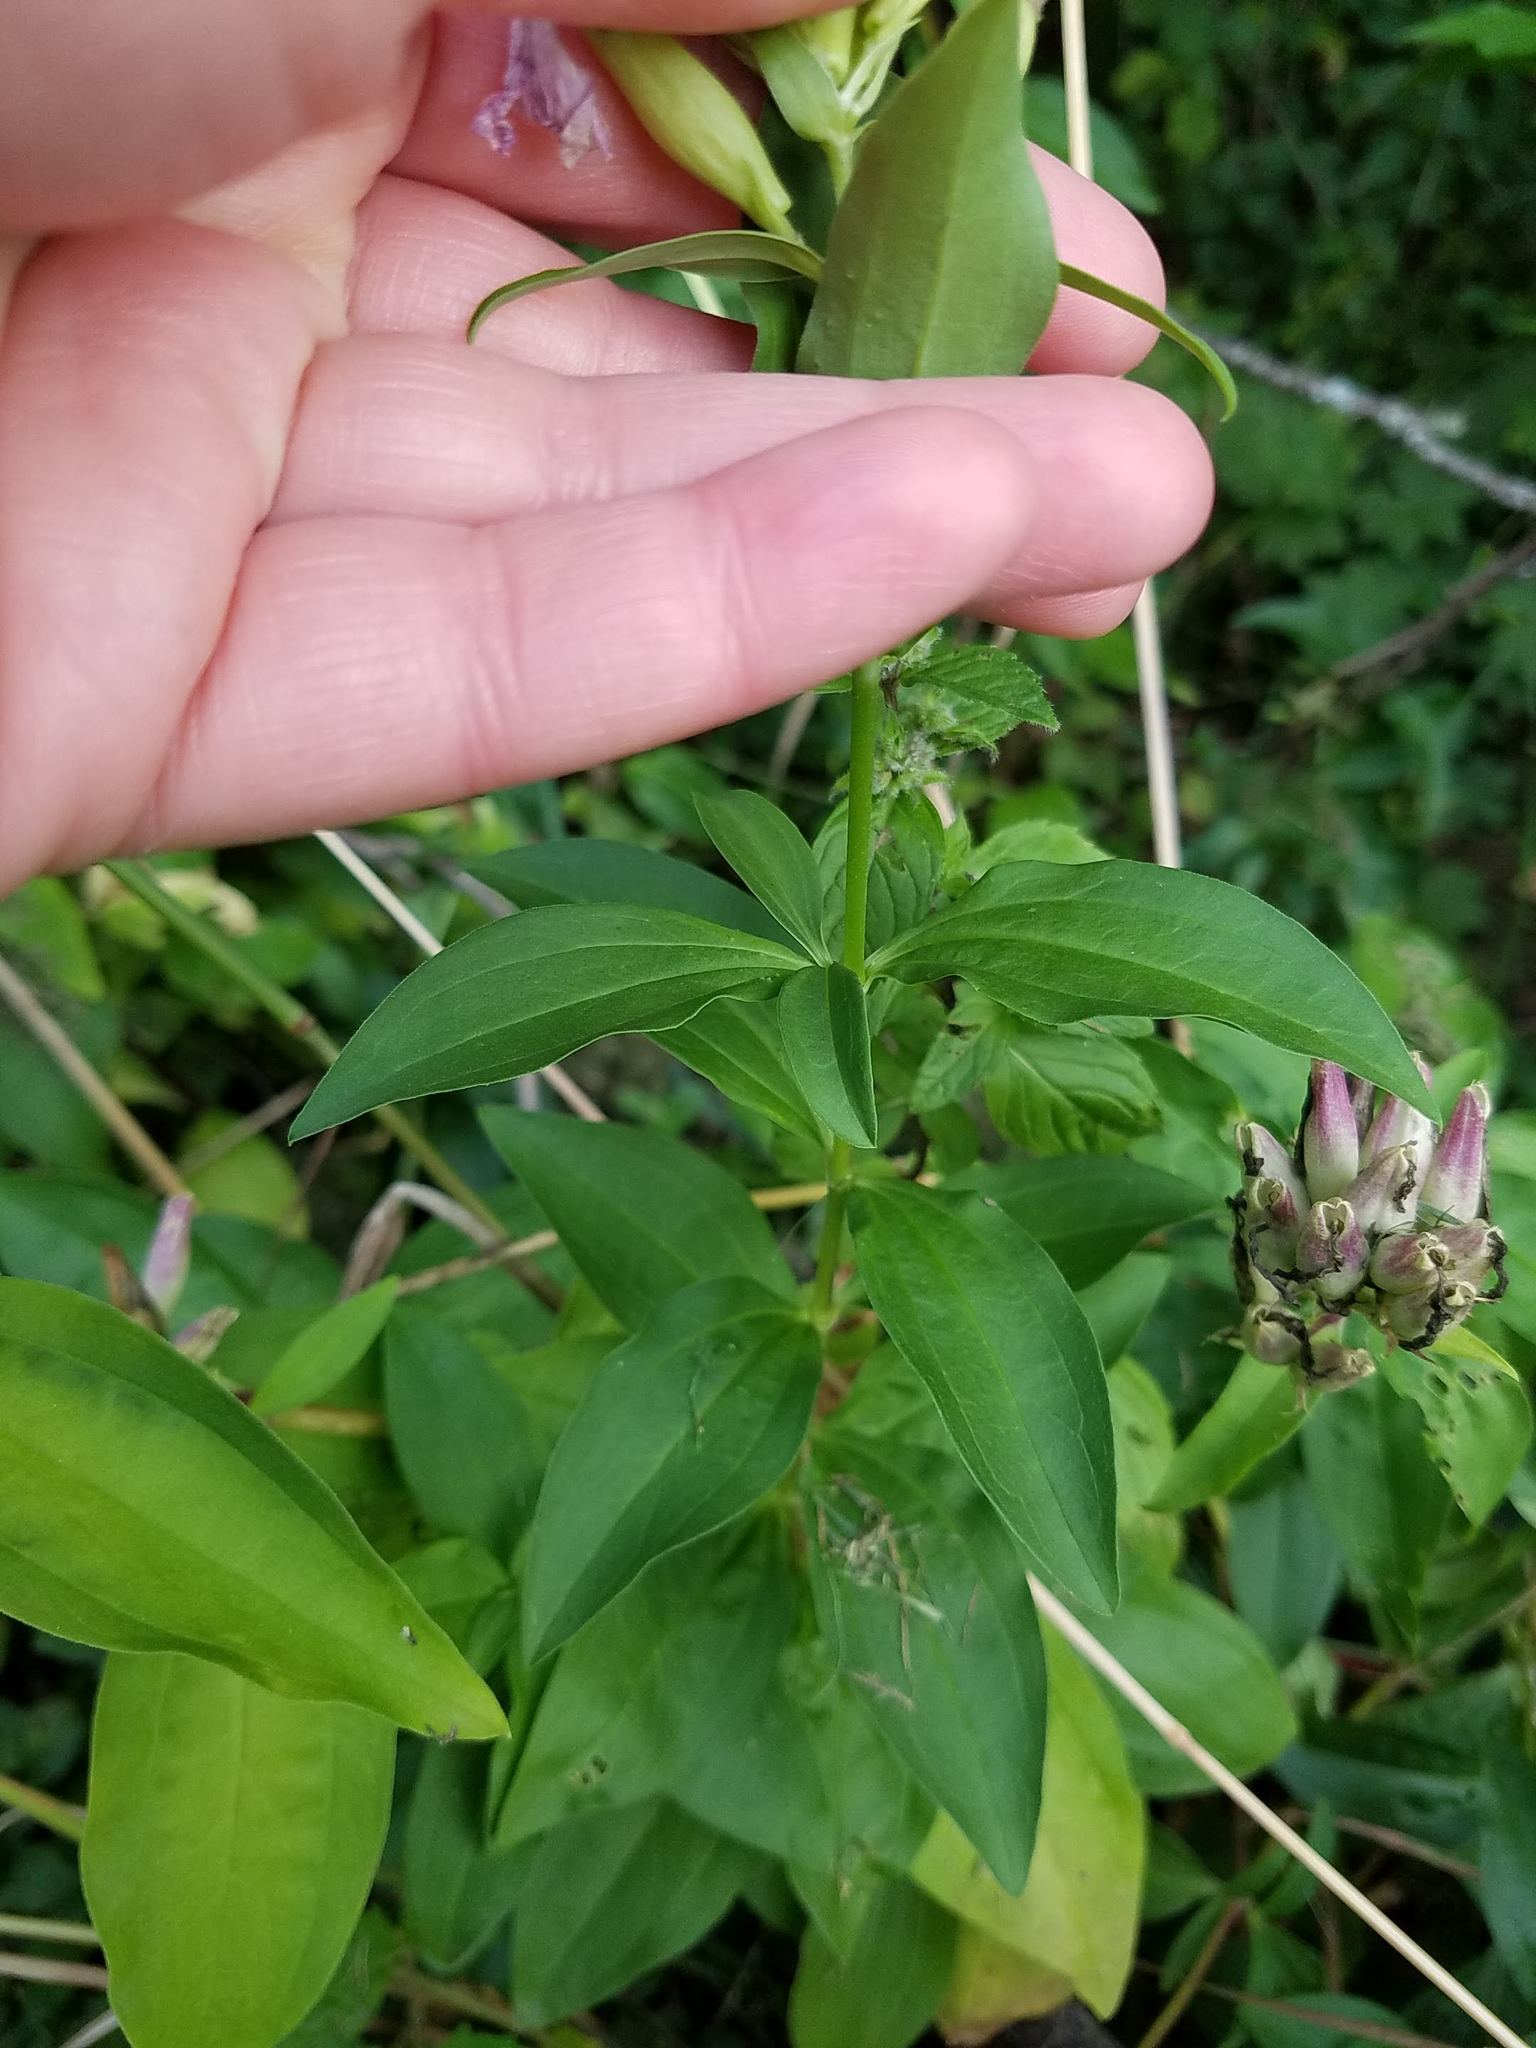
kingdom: Plantae
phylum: Tracheophyta
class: Magnoliopsida
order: Caryophyllales
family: Caryophyllaceae
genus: Saponaria
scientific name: Saponaria officinalis
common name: Soapwort
